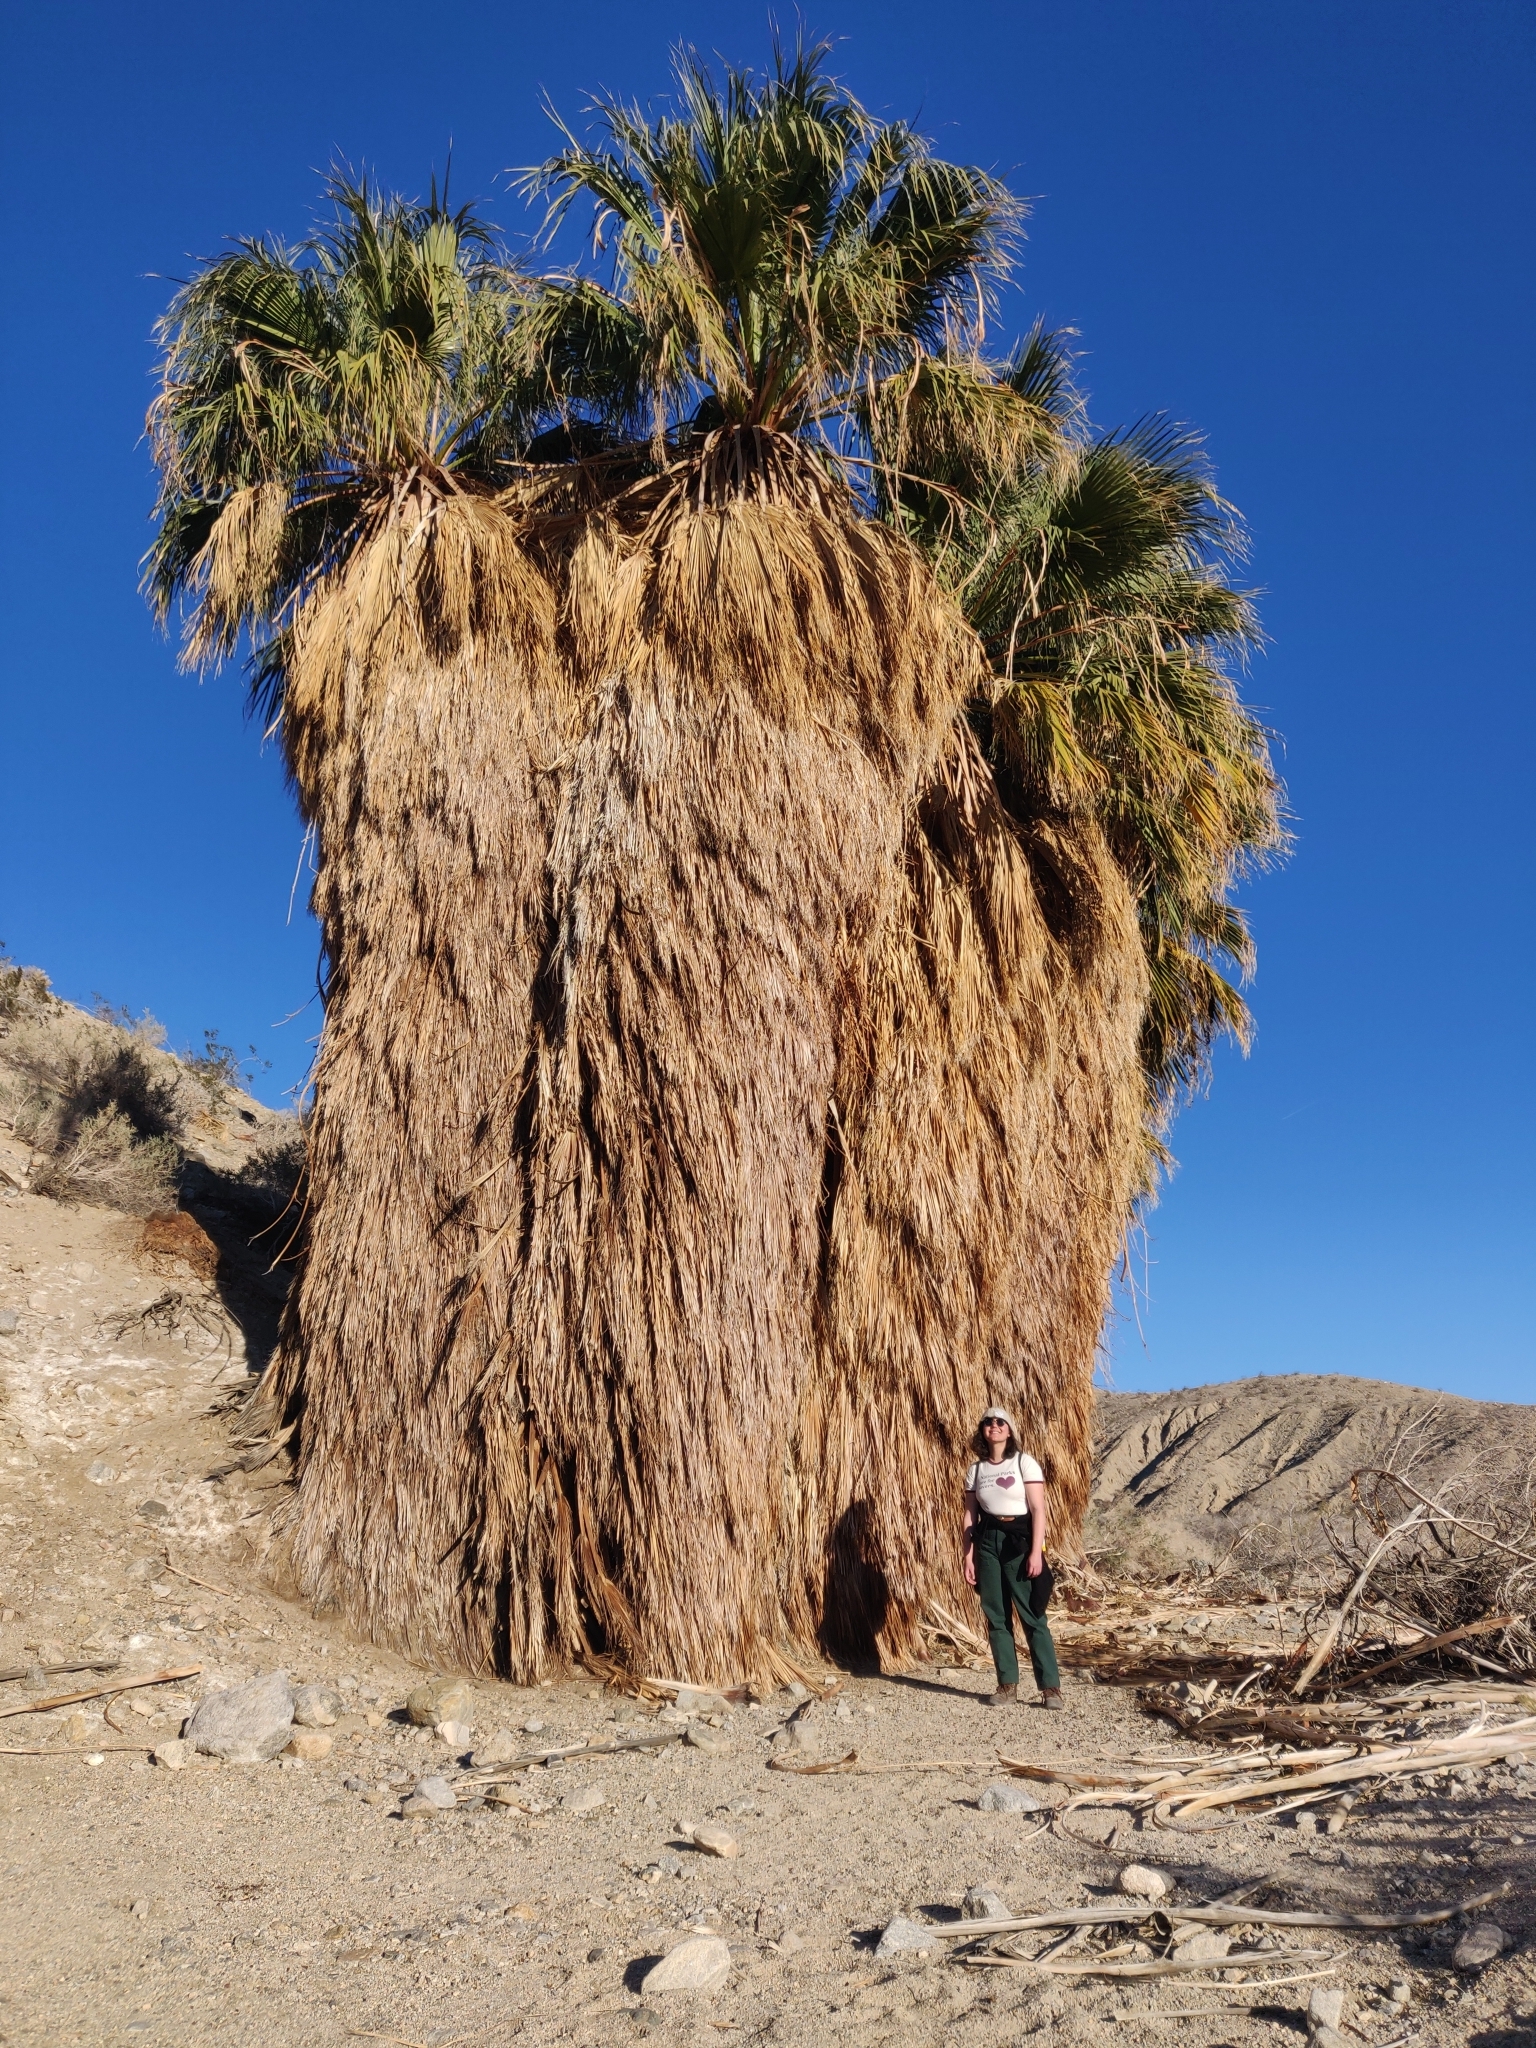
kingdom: Plantae
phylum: Tracheophyta
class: Liliopsida
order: Arecales
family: Arecaceae
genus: Washingtonia
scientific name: Washingtonia filifera
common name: California fan palm
